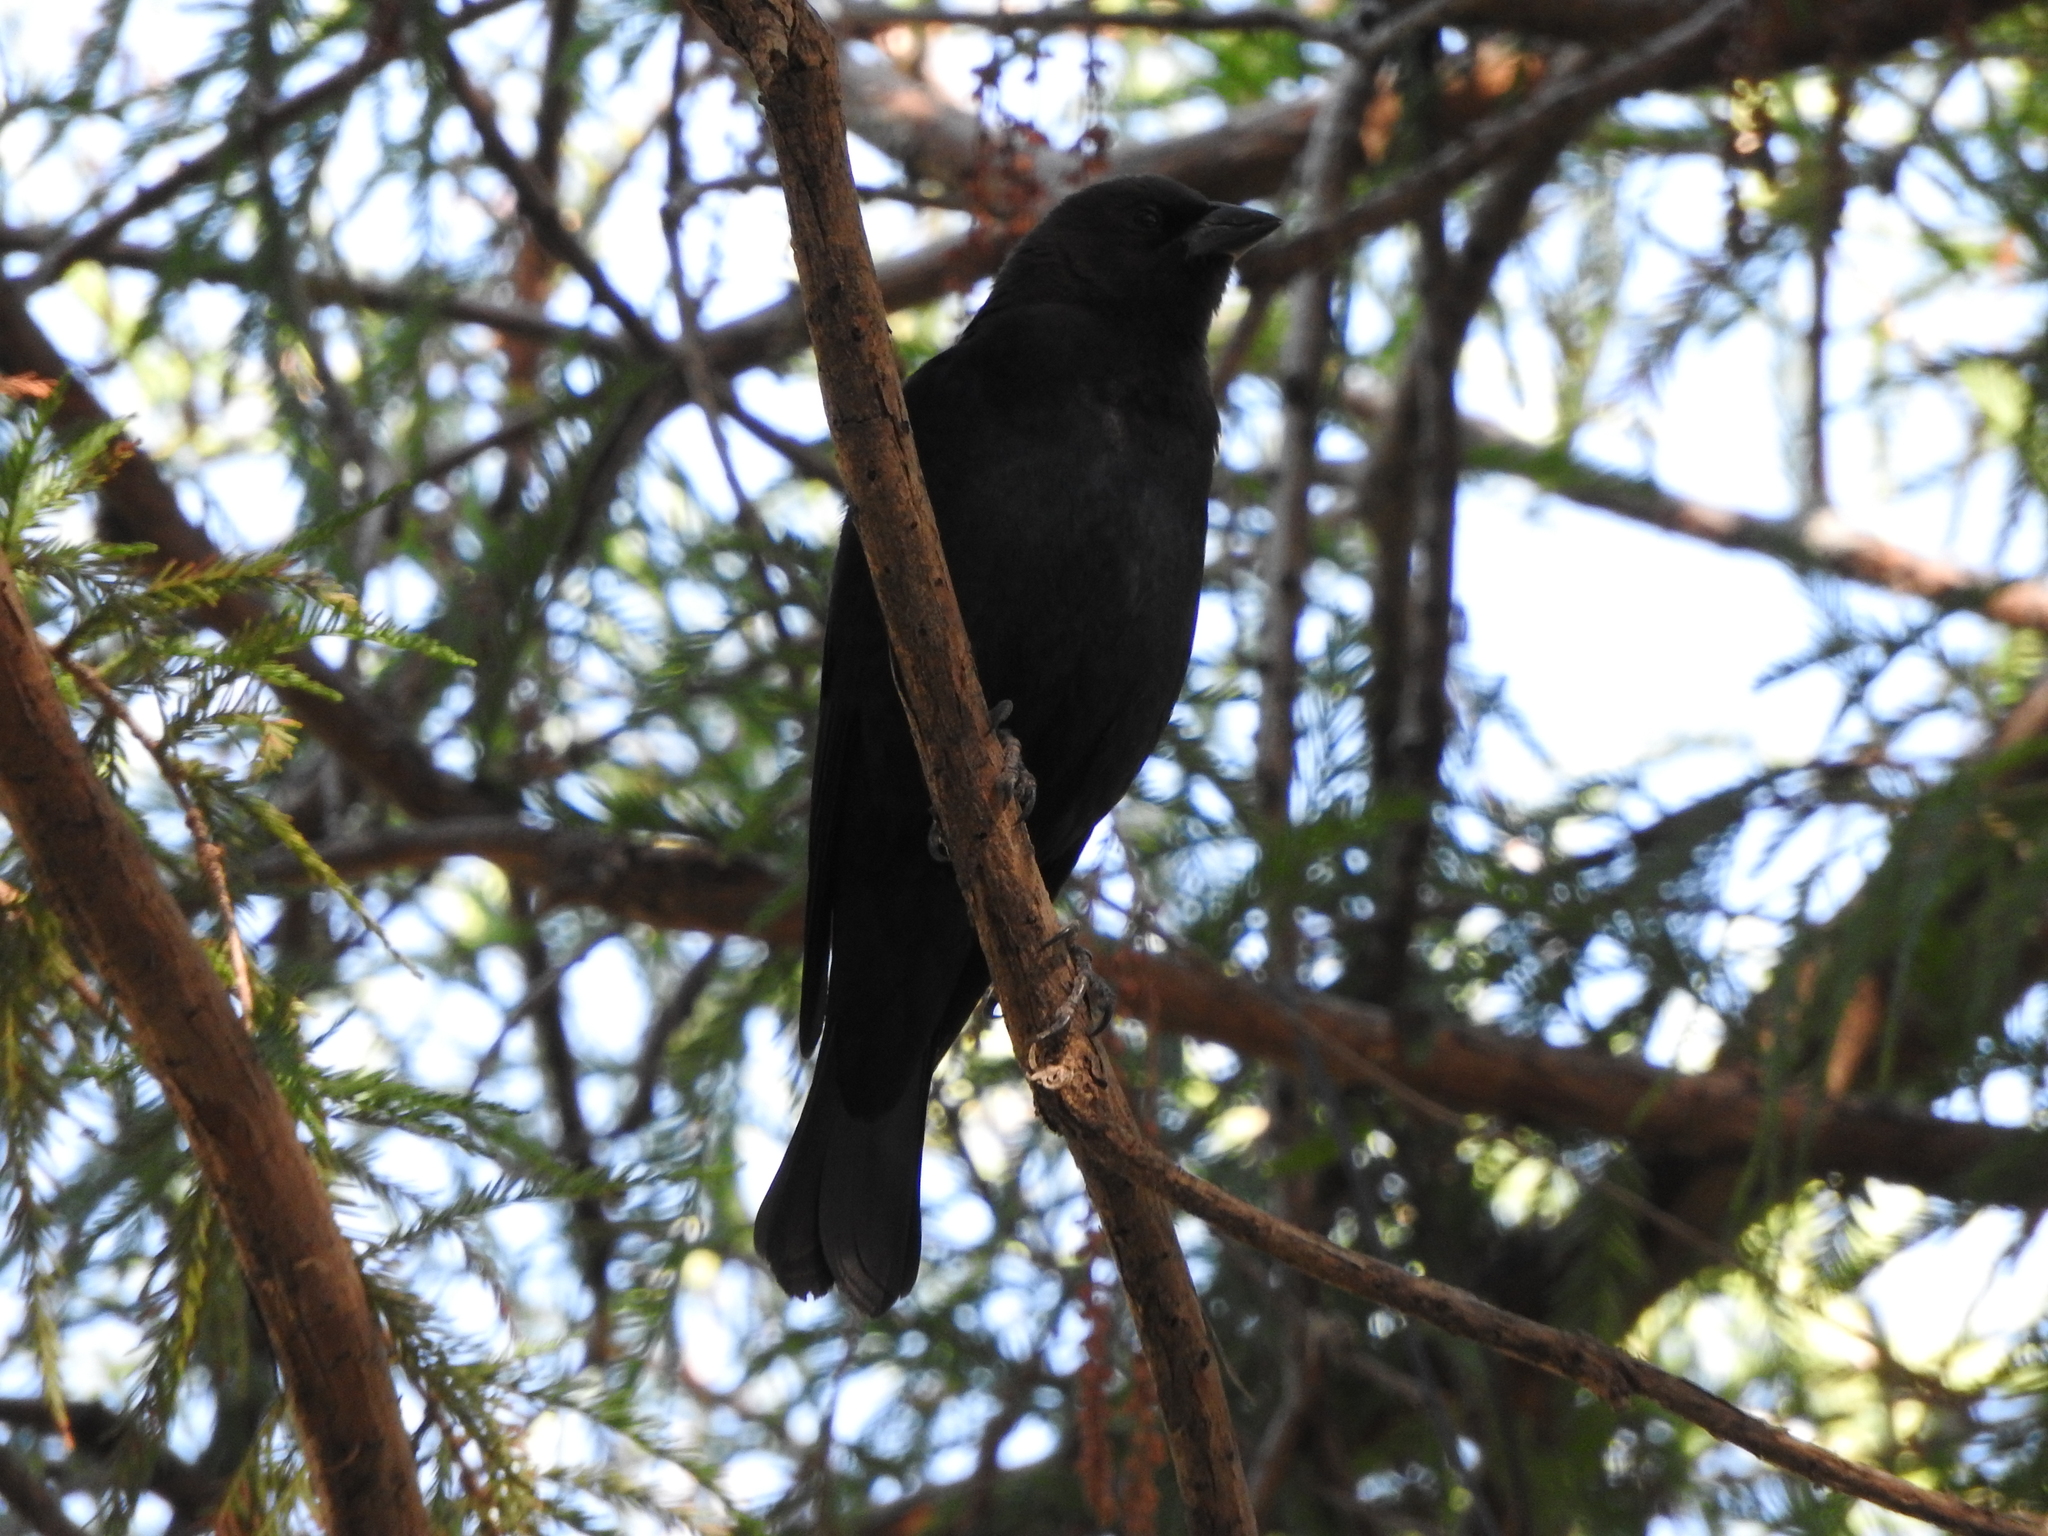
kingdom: Animalia
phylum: Chordata
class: Aves
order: Passeriformes
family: Icteridae
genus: Molothrus
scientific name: Molothrus ater
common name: Brown-headed cowbird
